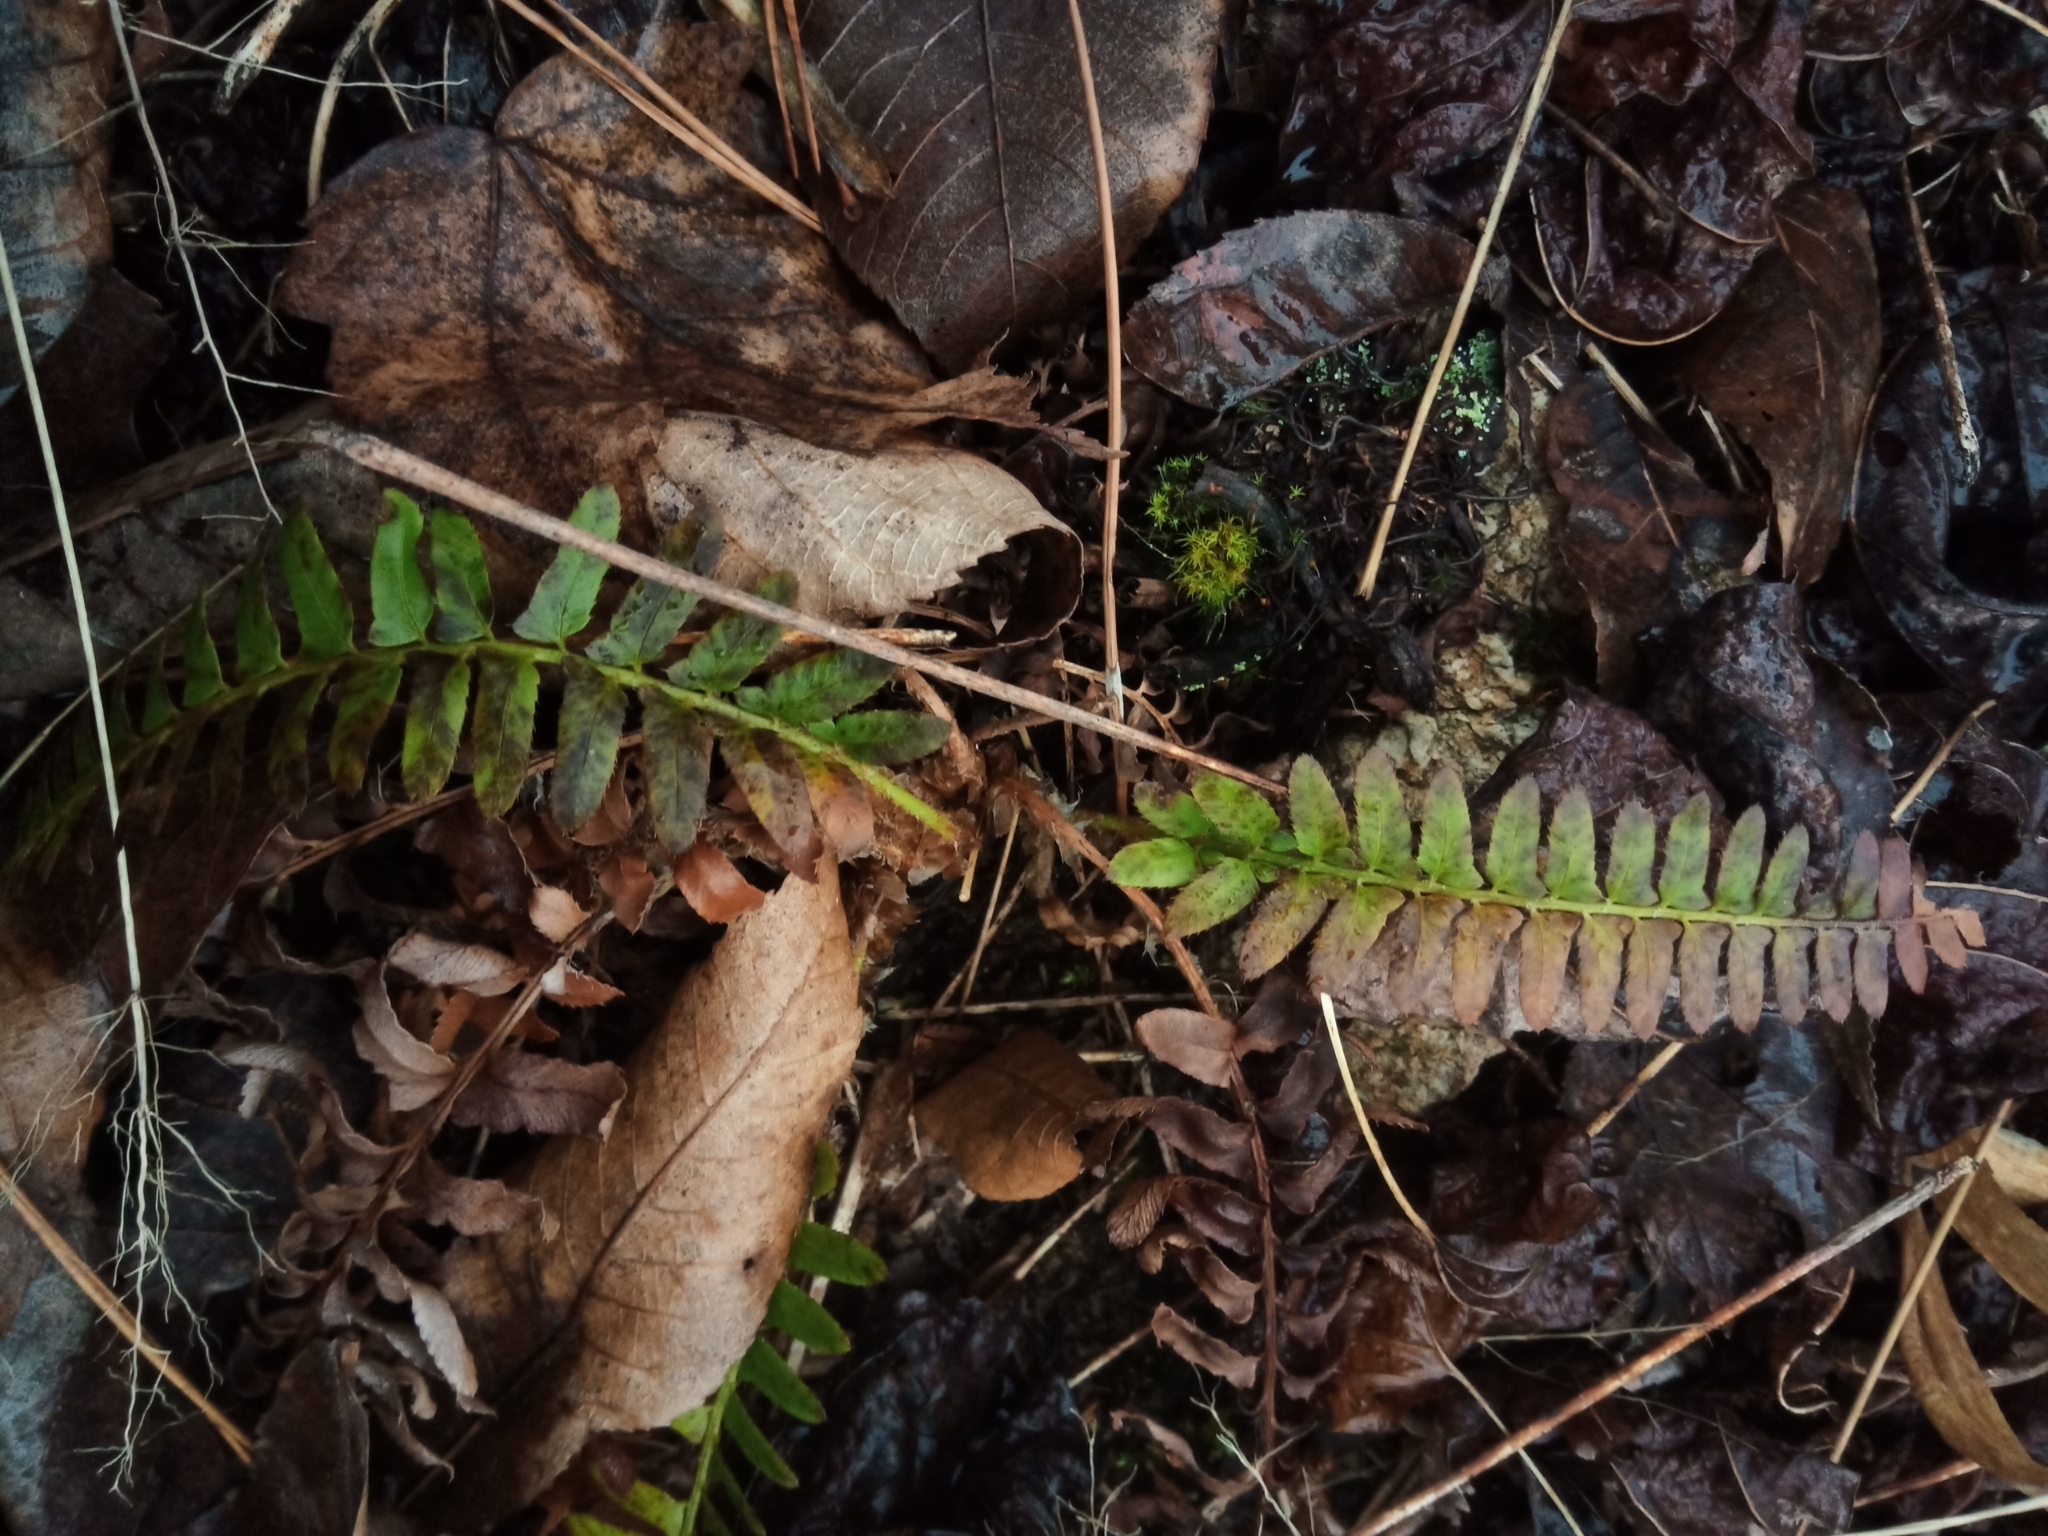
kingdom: Plantae
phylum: Tracheophyta
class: Polypodiopsida
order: Polypodiales
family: Dryopteridaceae
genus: Polystichum
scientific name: Polystichum acrostichoides
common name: Christmas fern
